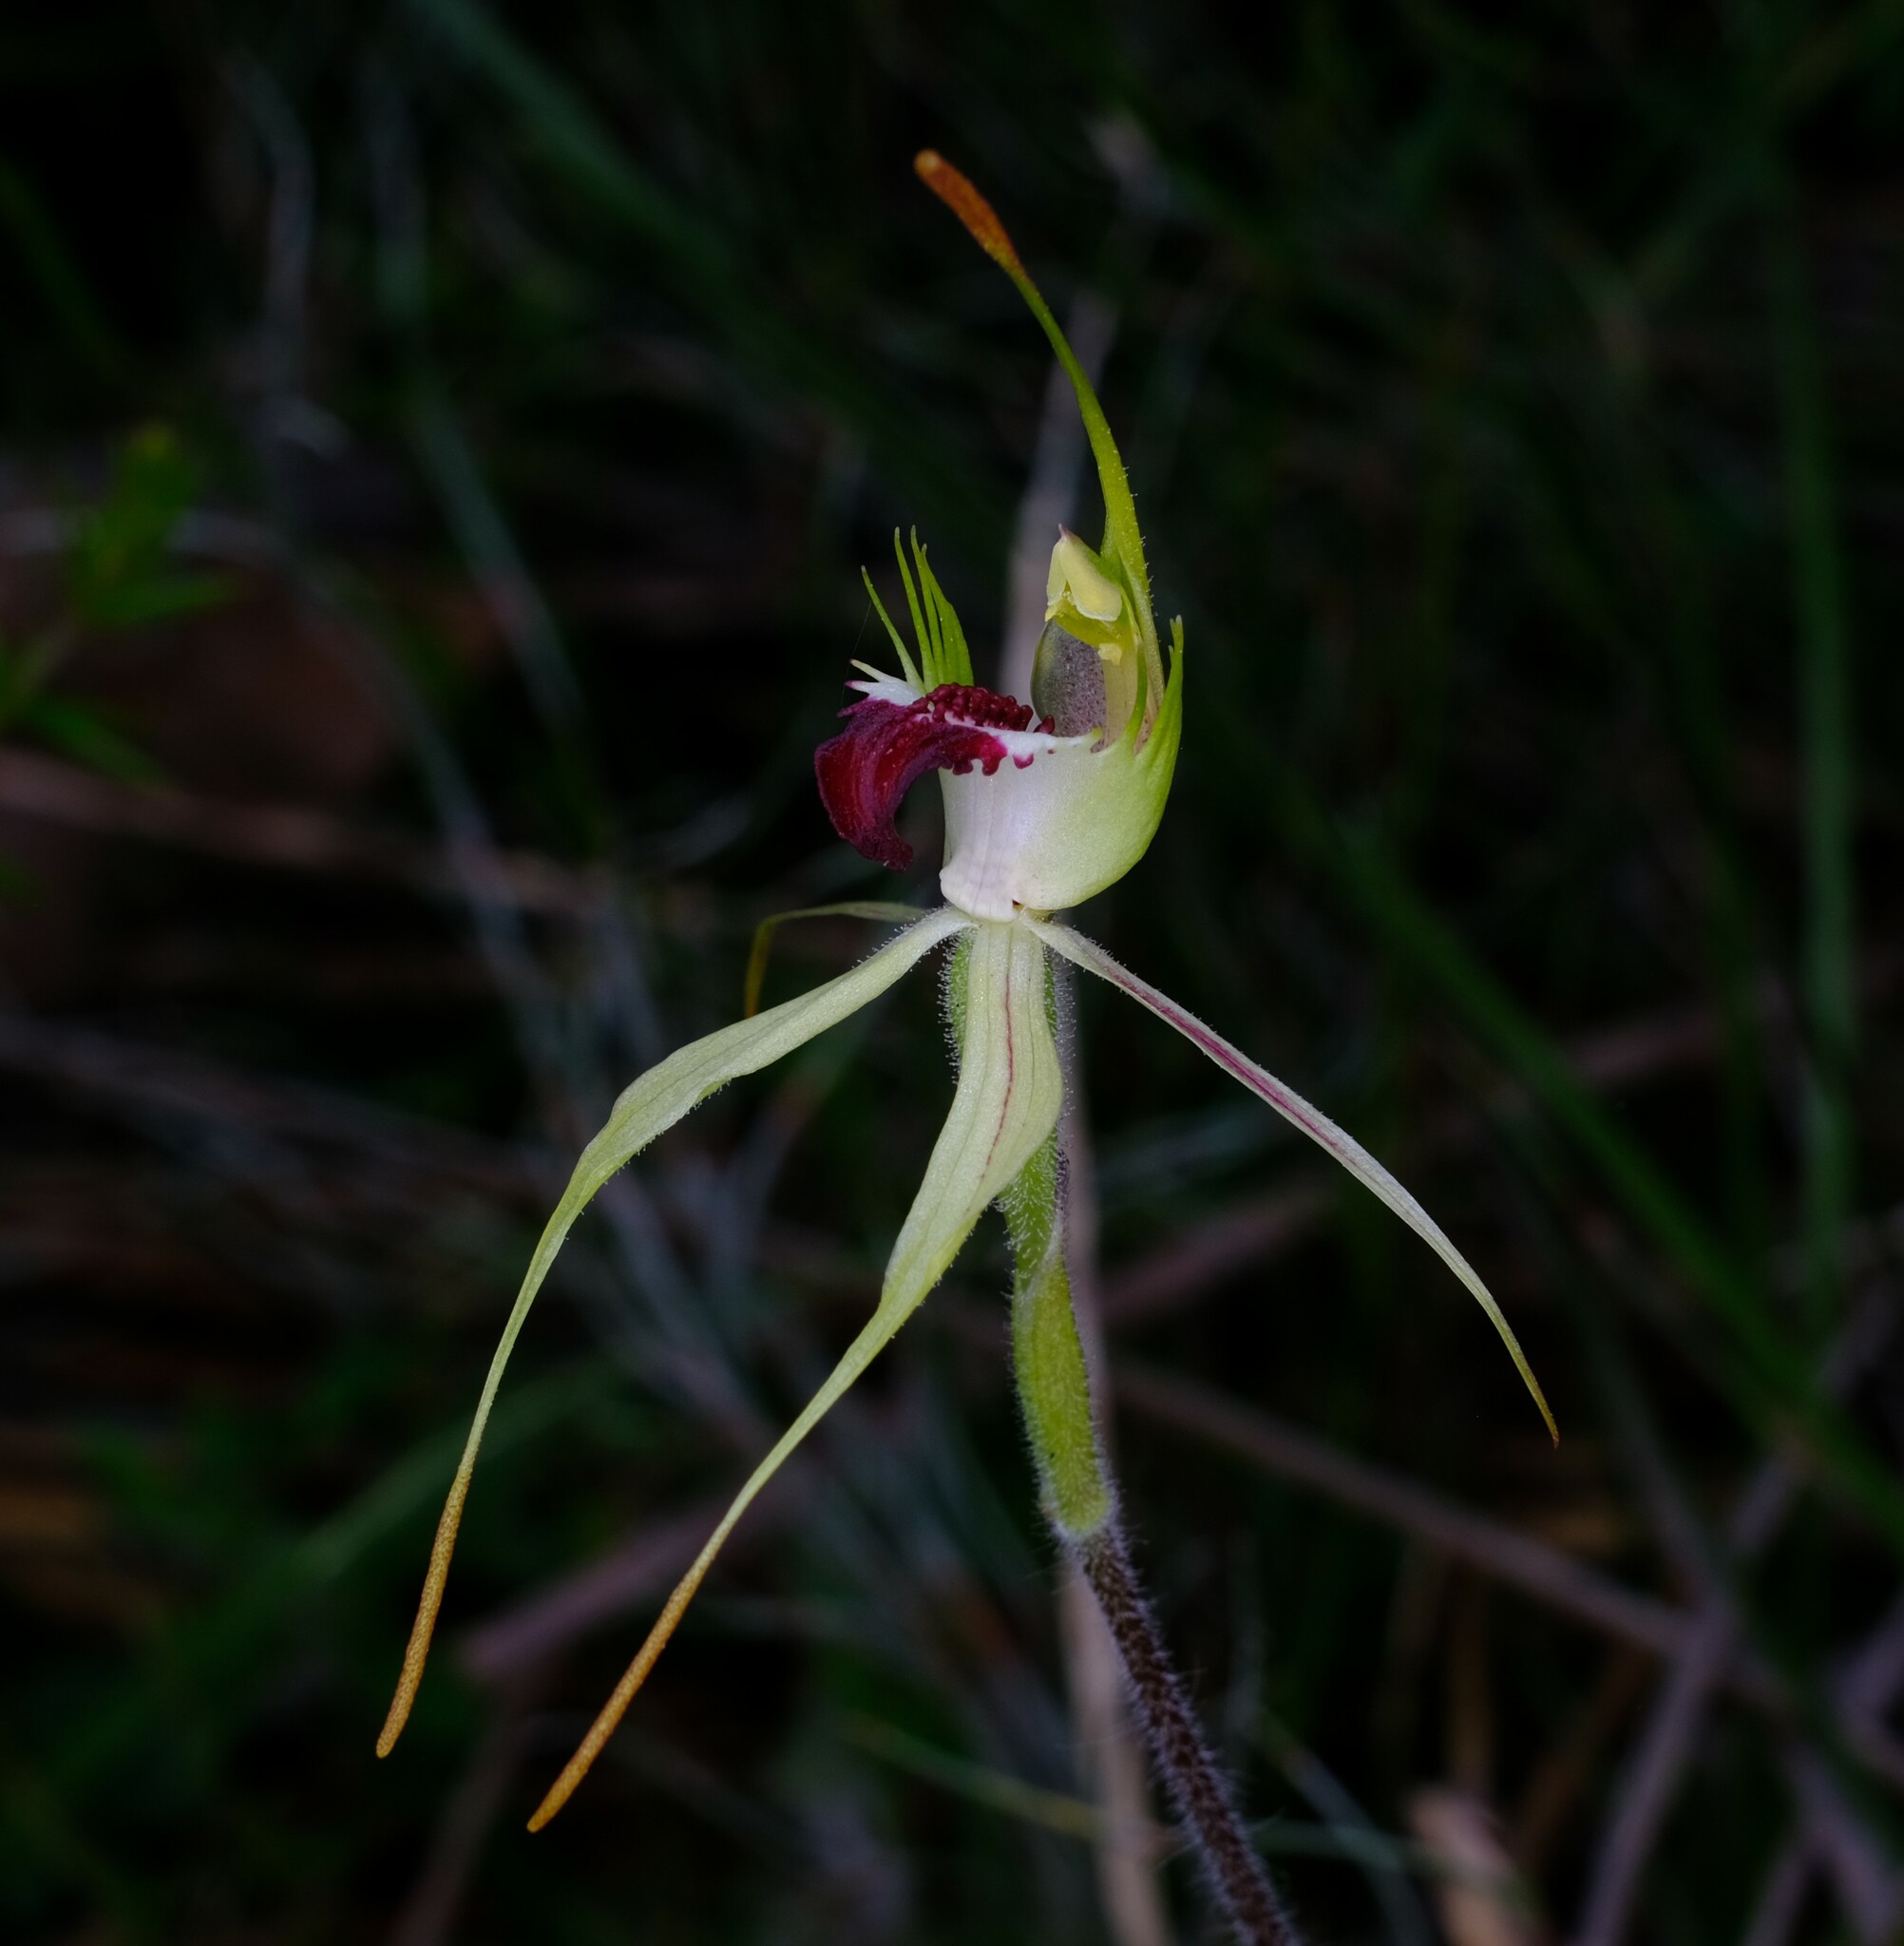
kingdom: Plantae
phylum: Tracheophyta
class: Liliopsida
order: Asparagales
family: Orchidaceae
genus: Caladenia
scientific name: Caladenia parva
